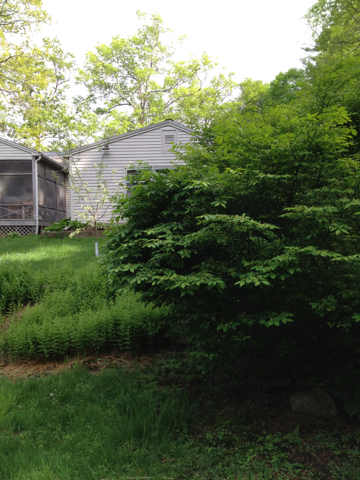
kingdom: Animalia
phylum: Chordata
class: Aves
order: Passeriformes
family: Turdidae
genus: Turdus
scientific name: Turdus migratorius
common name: American robin
